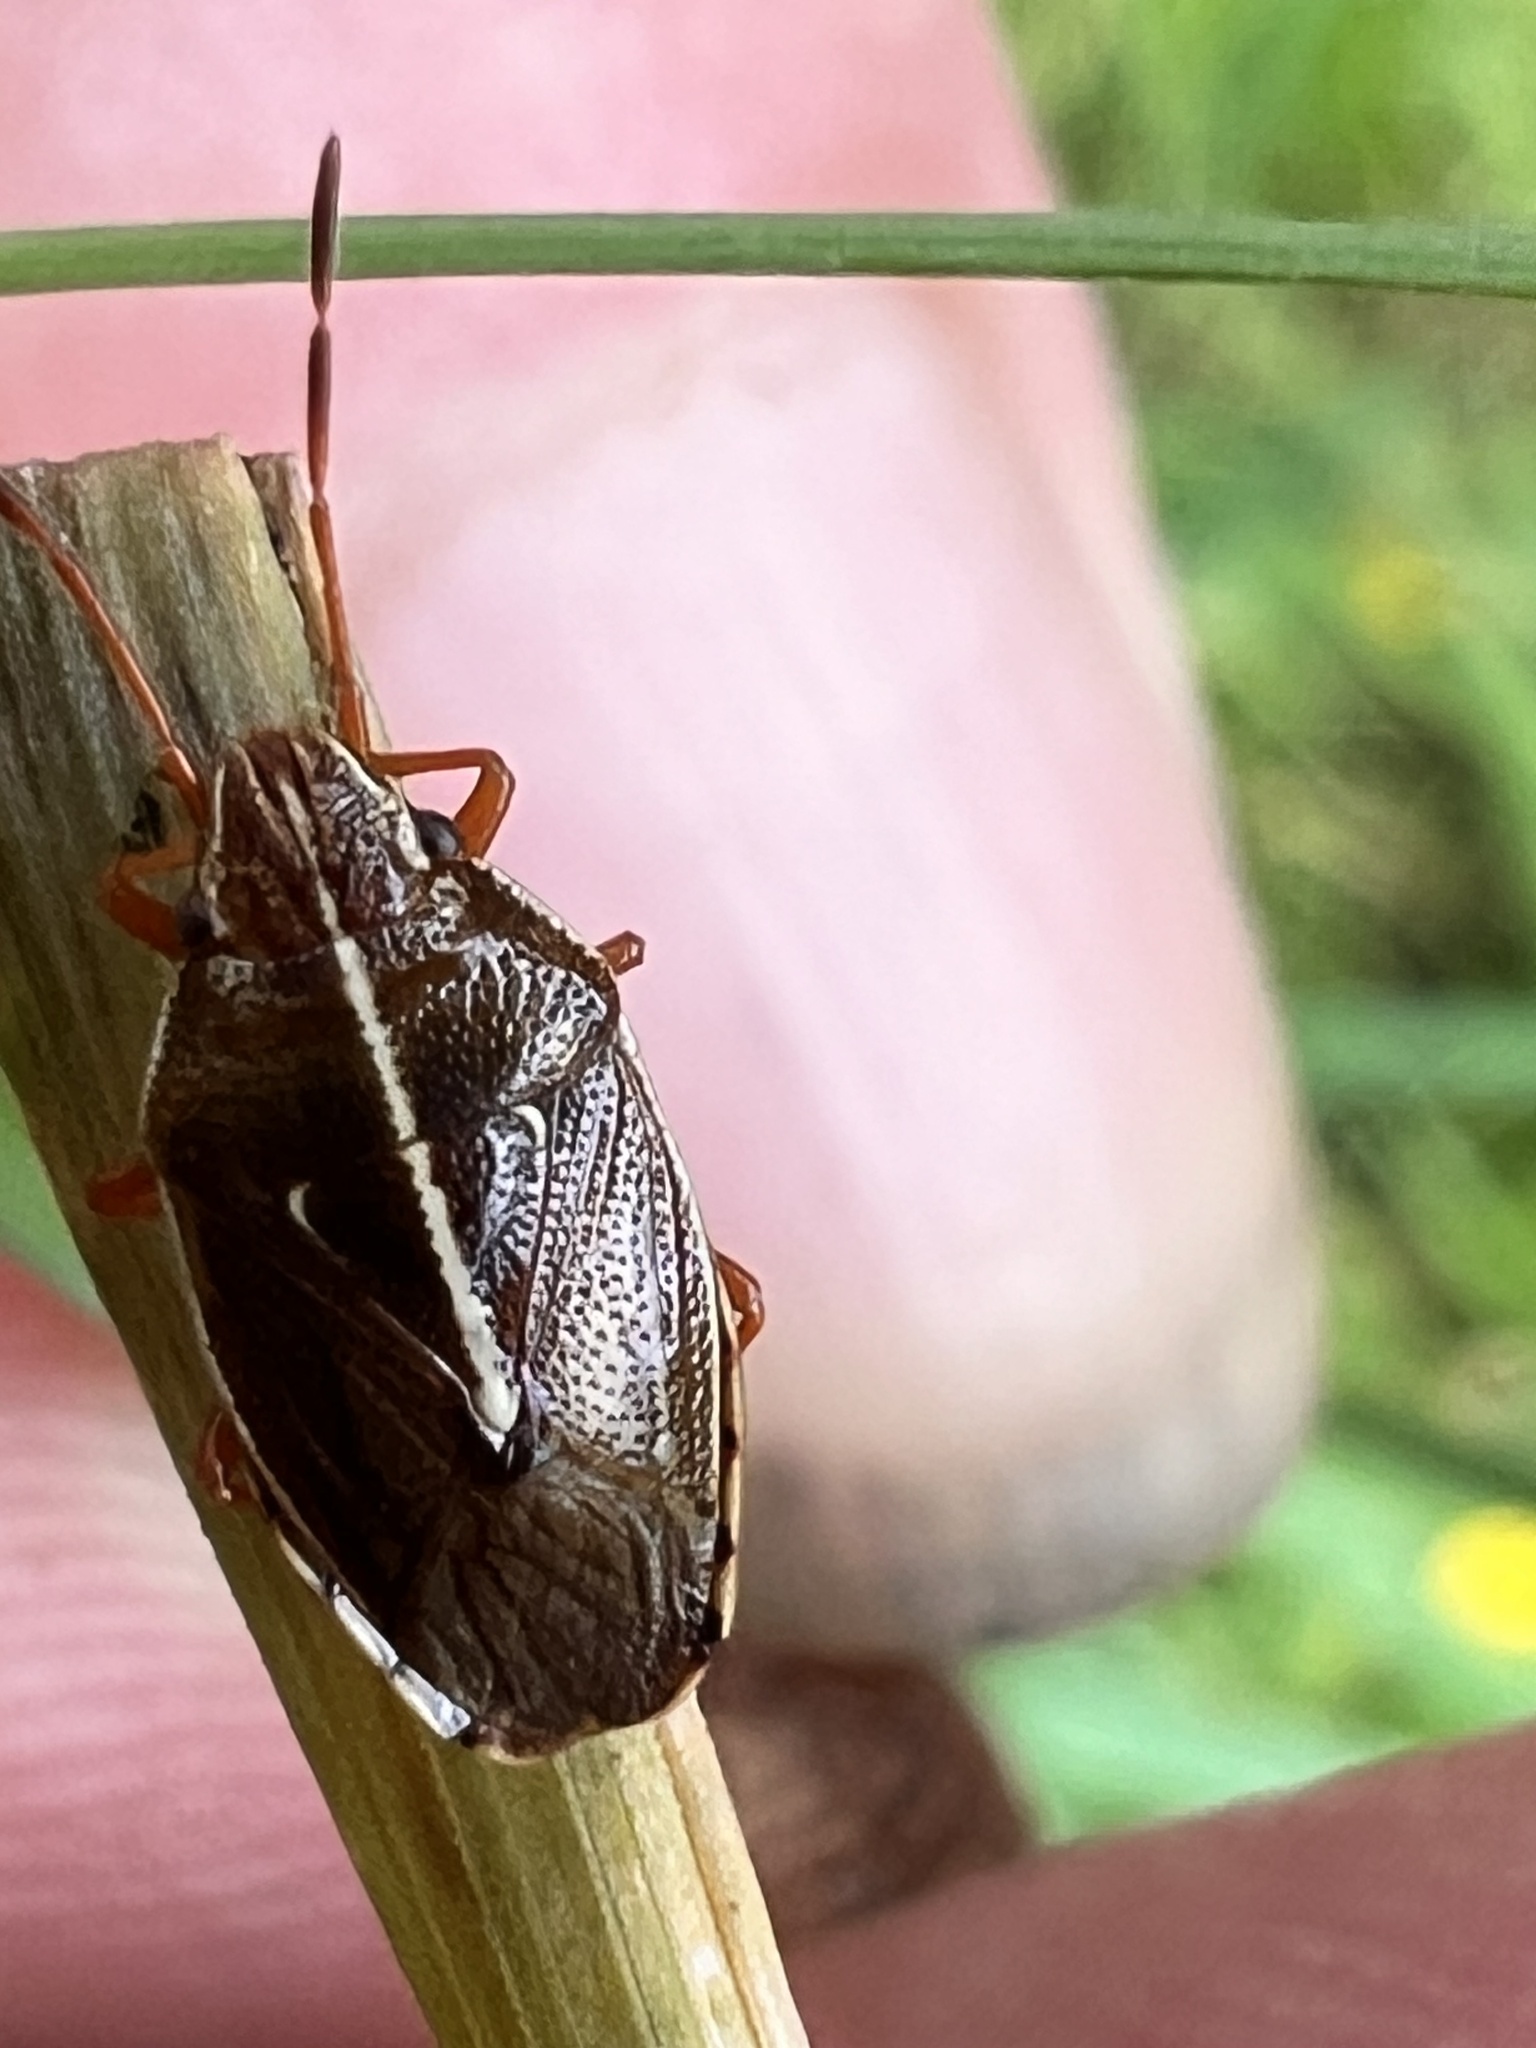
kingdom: Animalia
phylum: Arthropoda
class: Insecta
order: Hemiptera
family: Acanthosomatidae
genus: Rhopalimorpha
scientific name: Rhopalimorpha lineolaris
